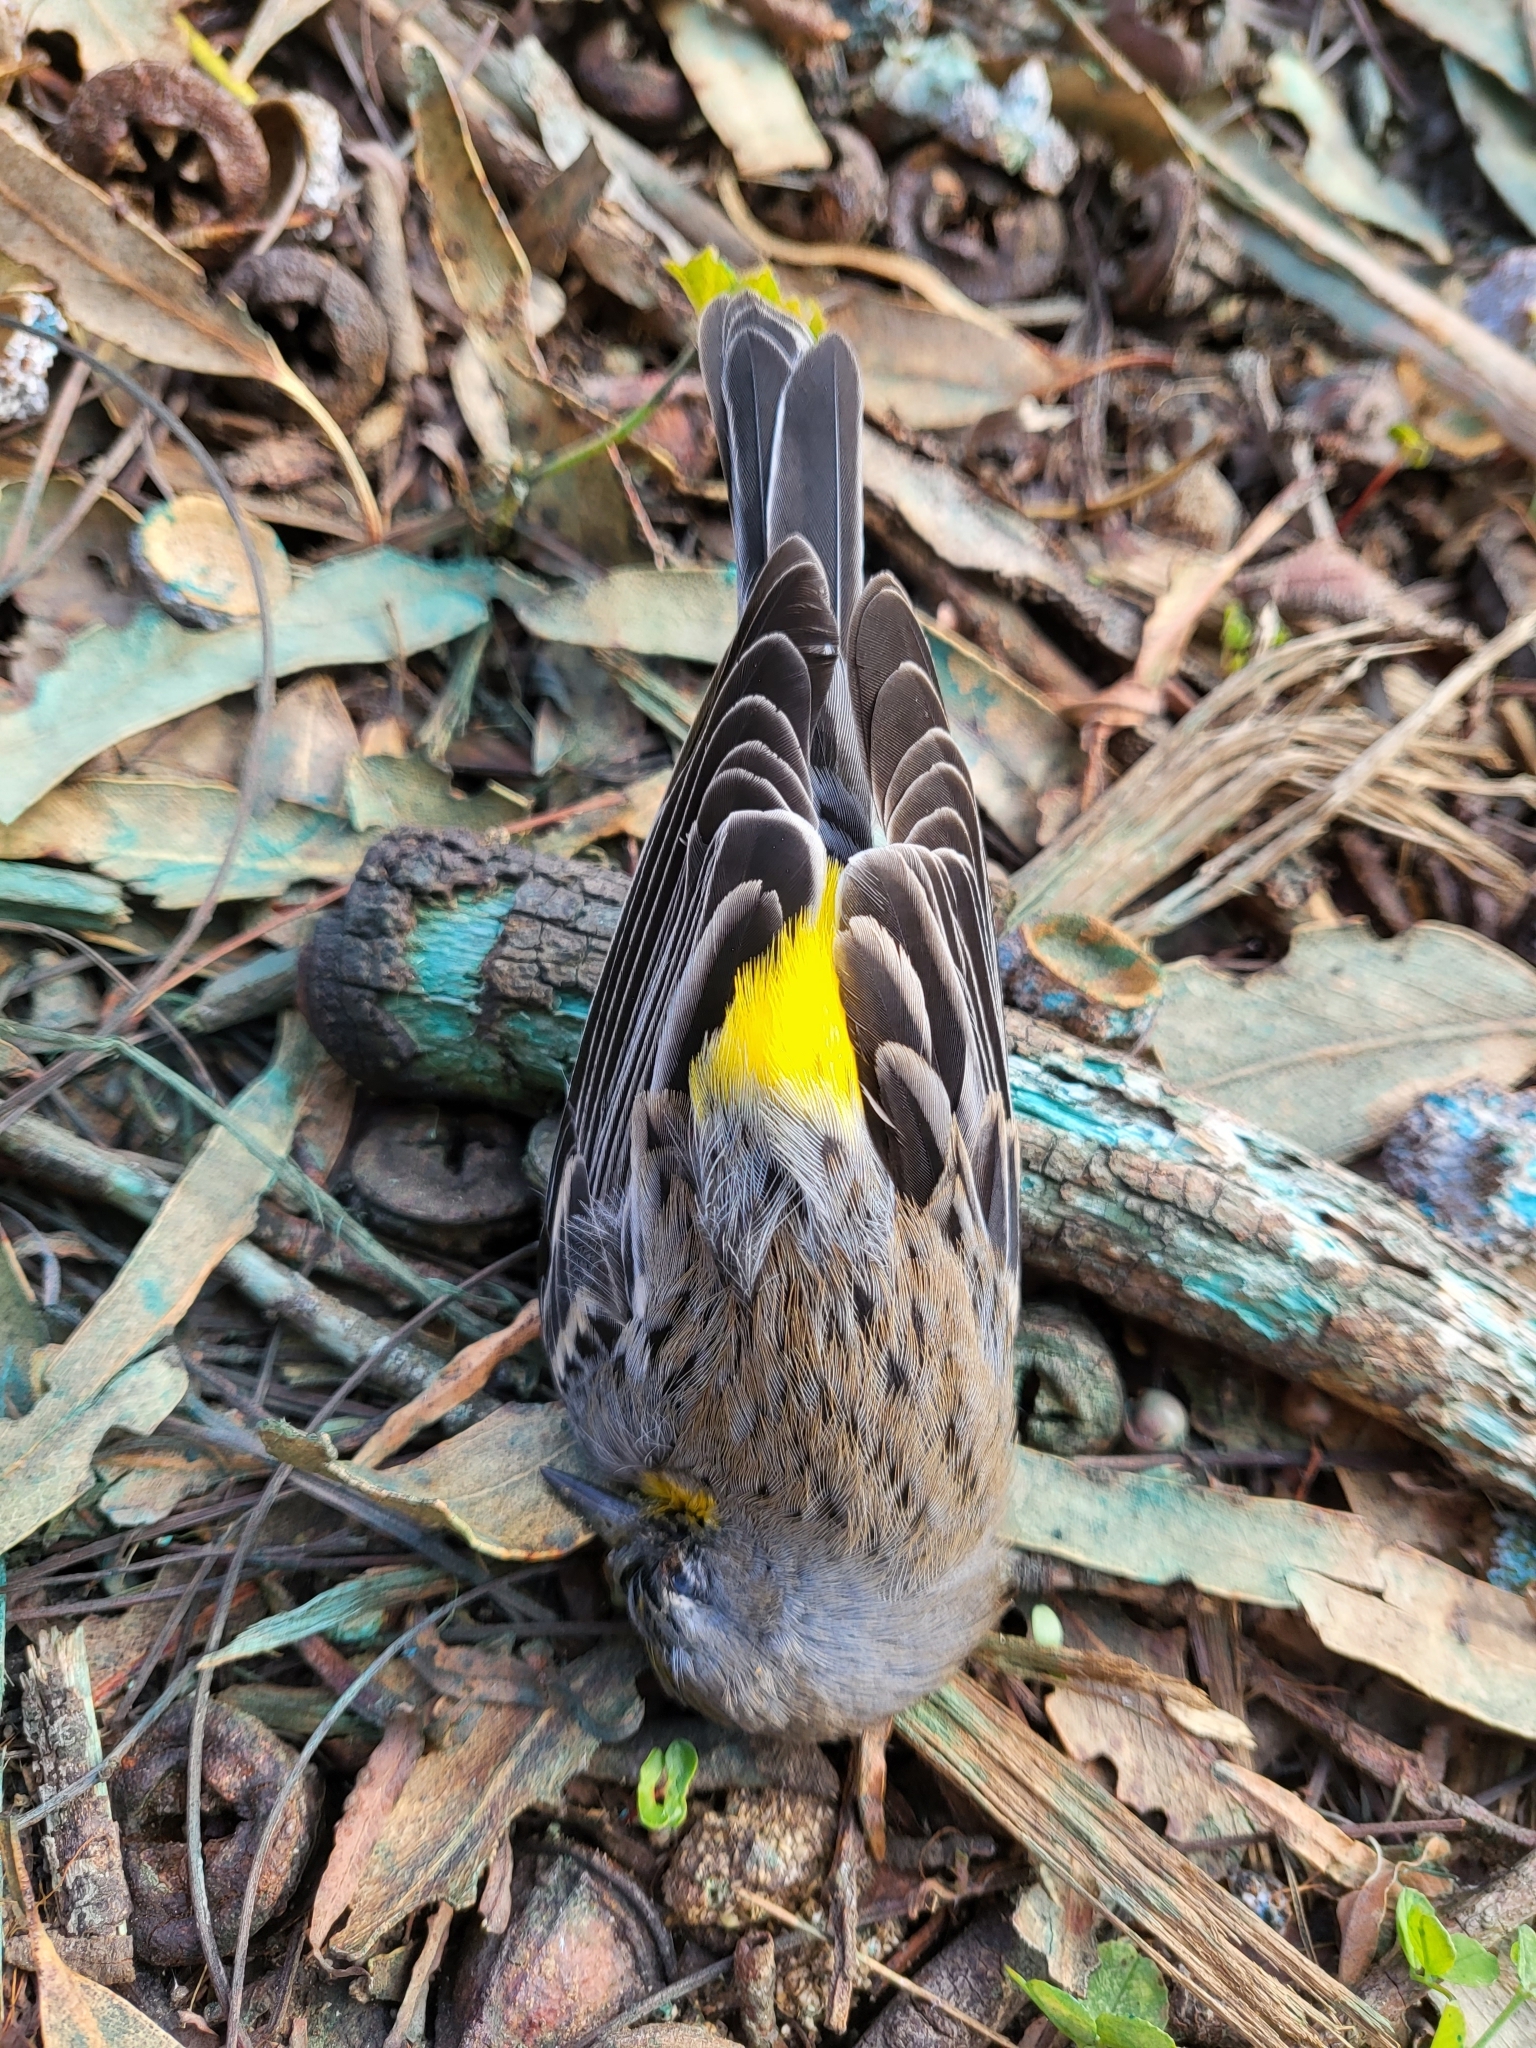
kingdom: Animalia
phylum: Chordata
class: Aves
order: Passeriformes
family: Parulidae
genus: Setophaga
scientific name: Setophaga coronata
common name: Myrtle warbler
